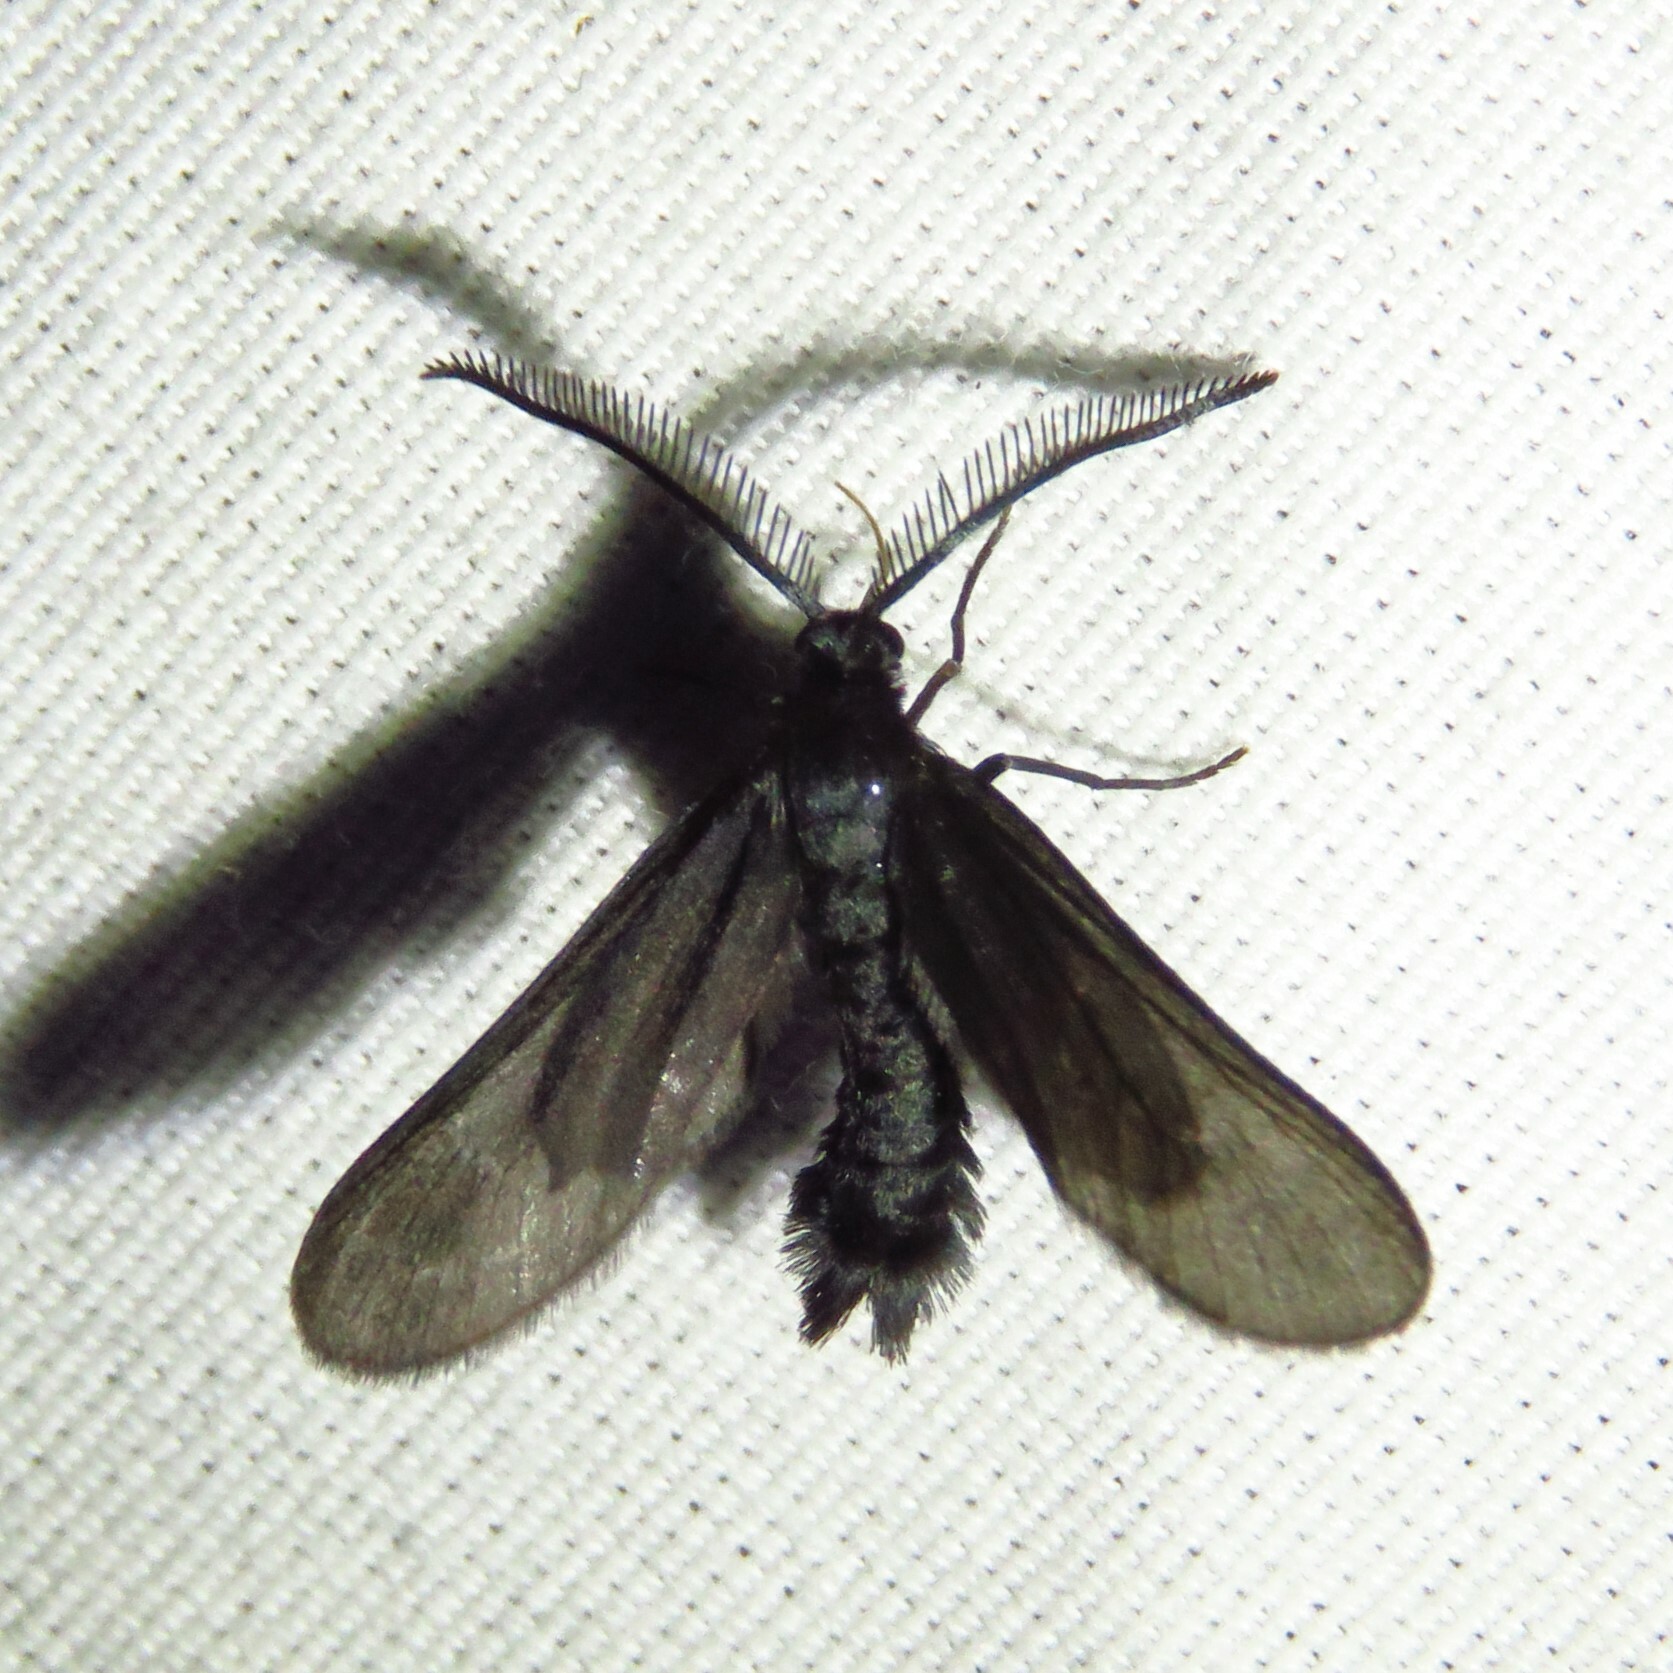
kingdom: Animalia
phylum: Arthropoda
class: Insecta
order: Lepidoptera
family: Zygaenidae
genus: Harrisina
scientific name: Harrisina coracina
